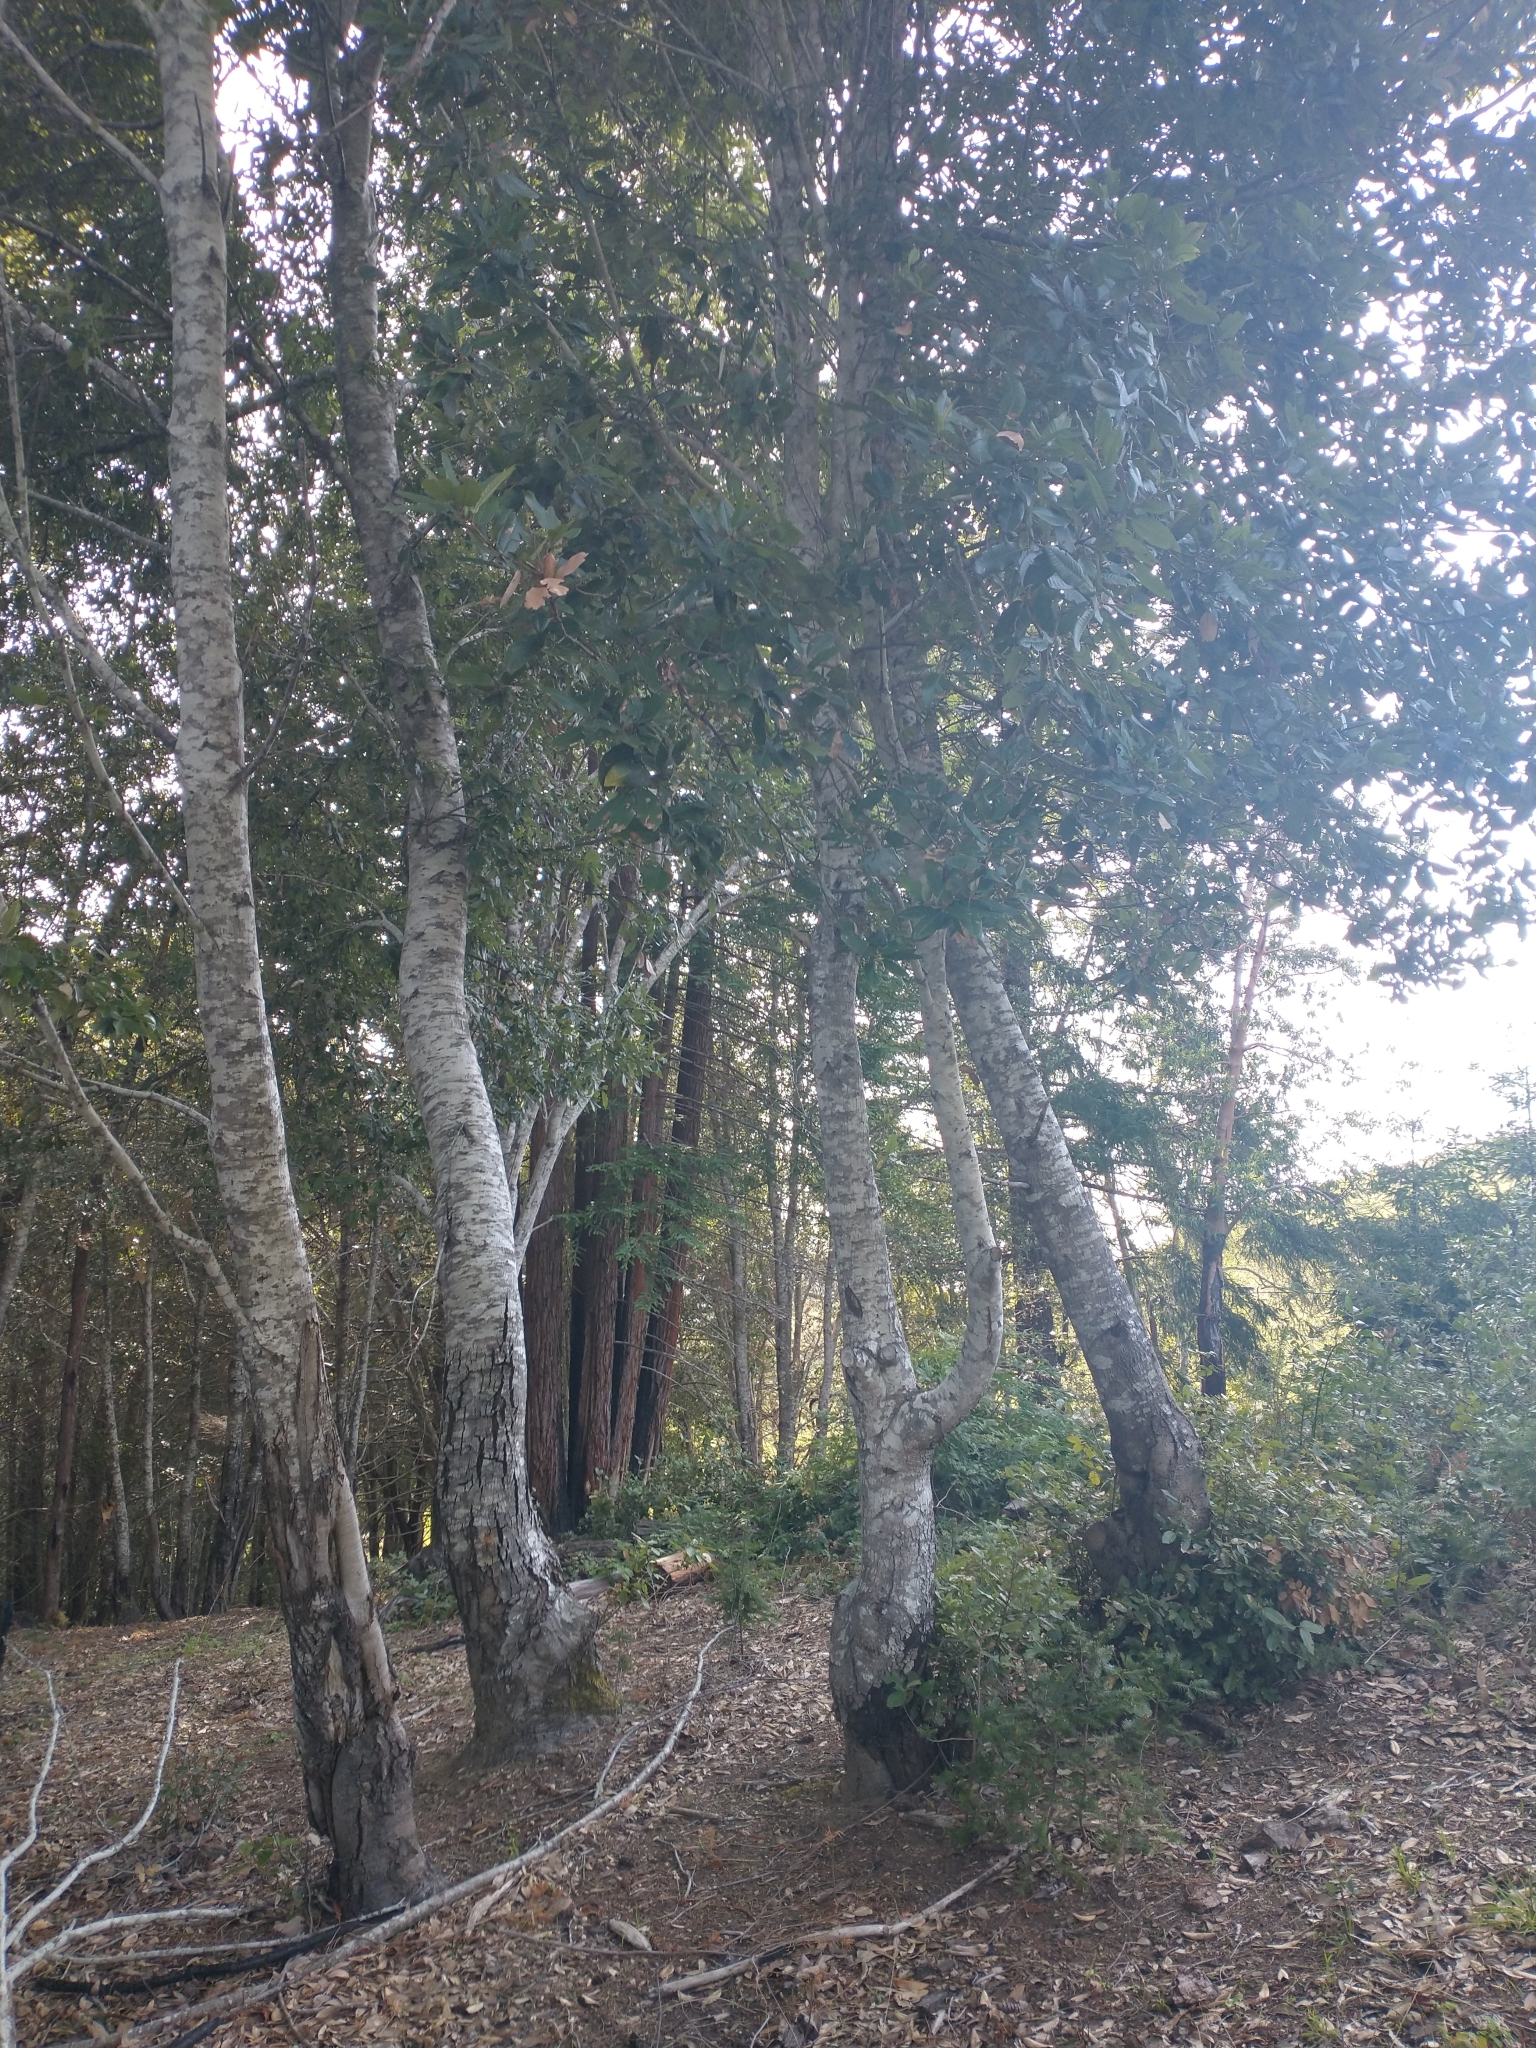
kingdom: Plantae
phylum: Tracheophyta
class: Magnoliopsida
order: Fagales
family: Fagaceae
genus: Notholithocarpus
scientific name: Notholithocarpus densiflorus
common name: Tan bark oak
